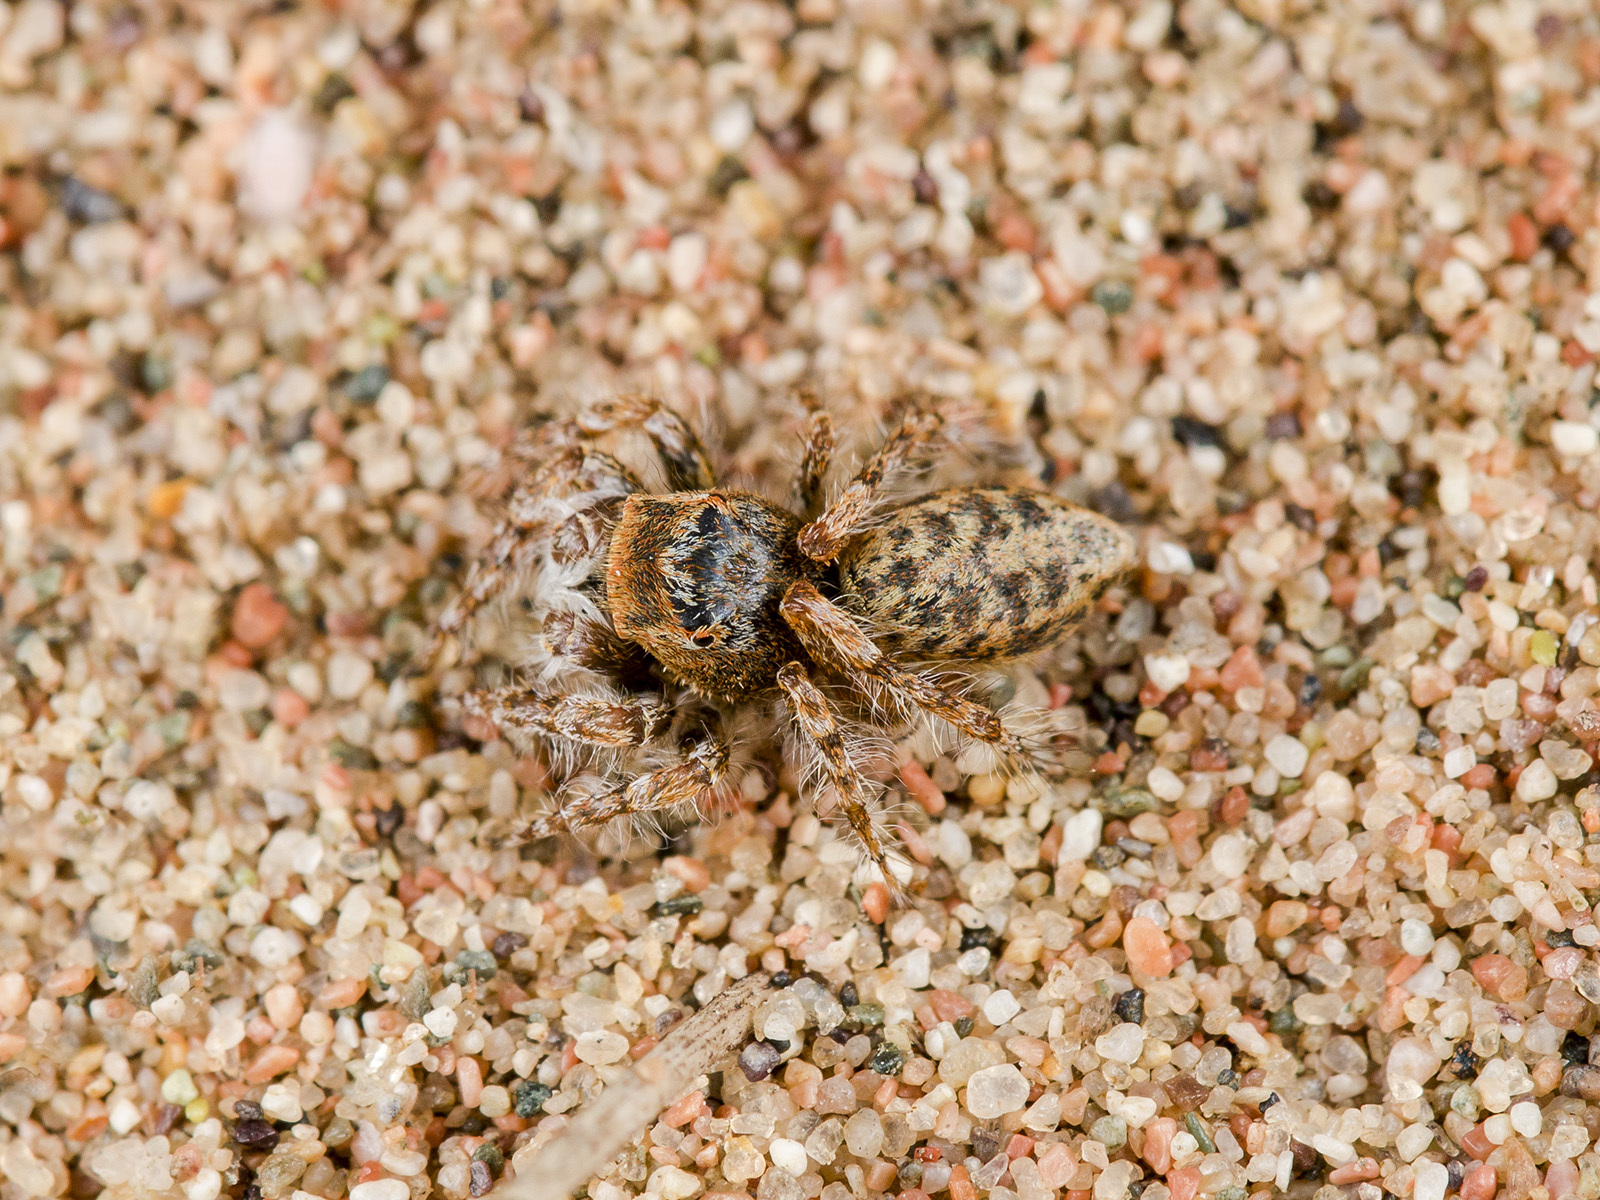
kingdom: Animalia
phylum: Arthropoda
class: Arachnida
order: Araneae
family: Salticidae
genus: Yllenus
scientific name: Yllenus uiguricus
